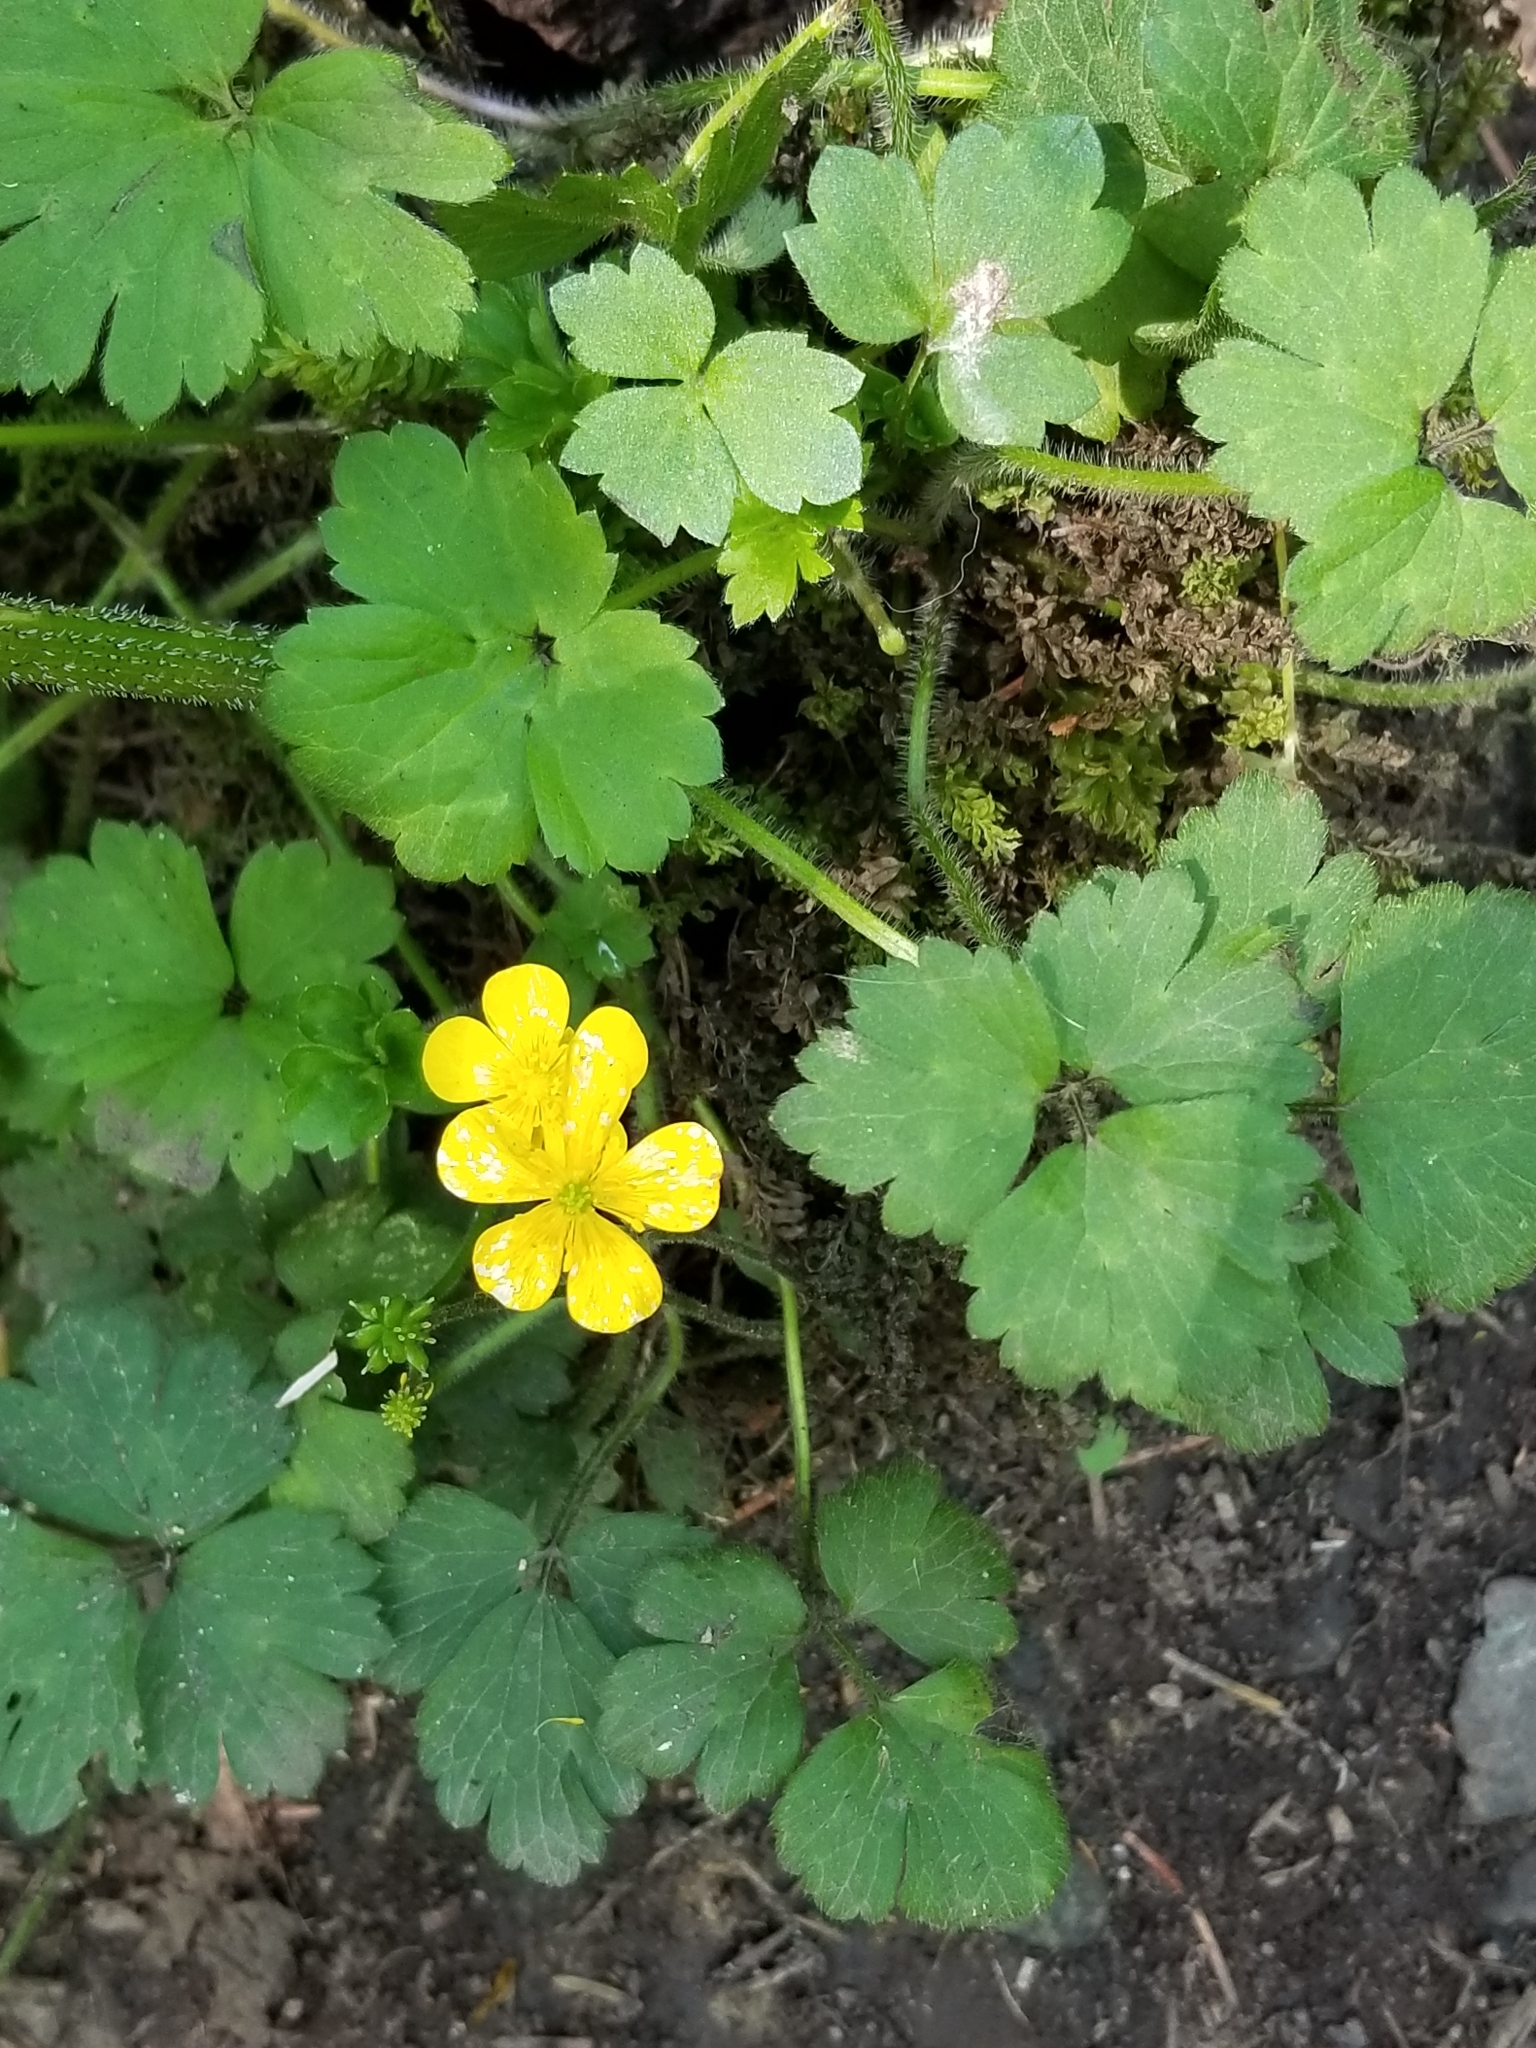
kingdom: Plantae
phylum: Tracheophyta
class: Magnoliopsida
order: Ranunculales
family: Ranunculaceae
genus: Ranunculus
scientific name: Ranunculus repens
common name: Creeping buttercup
